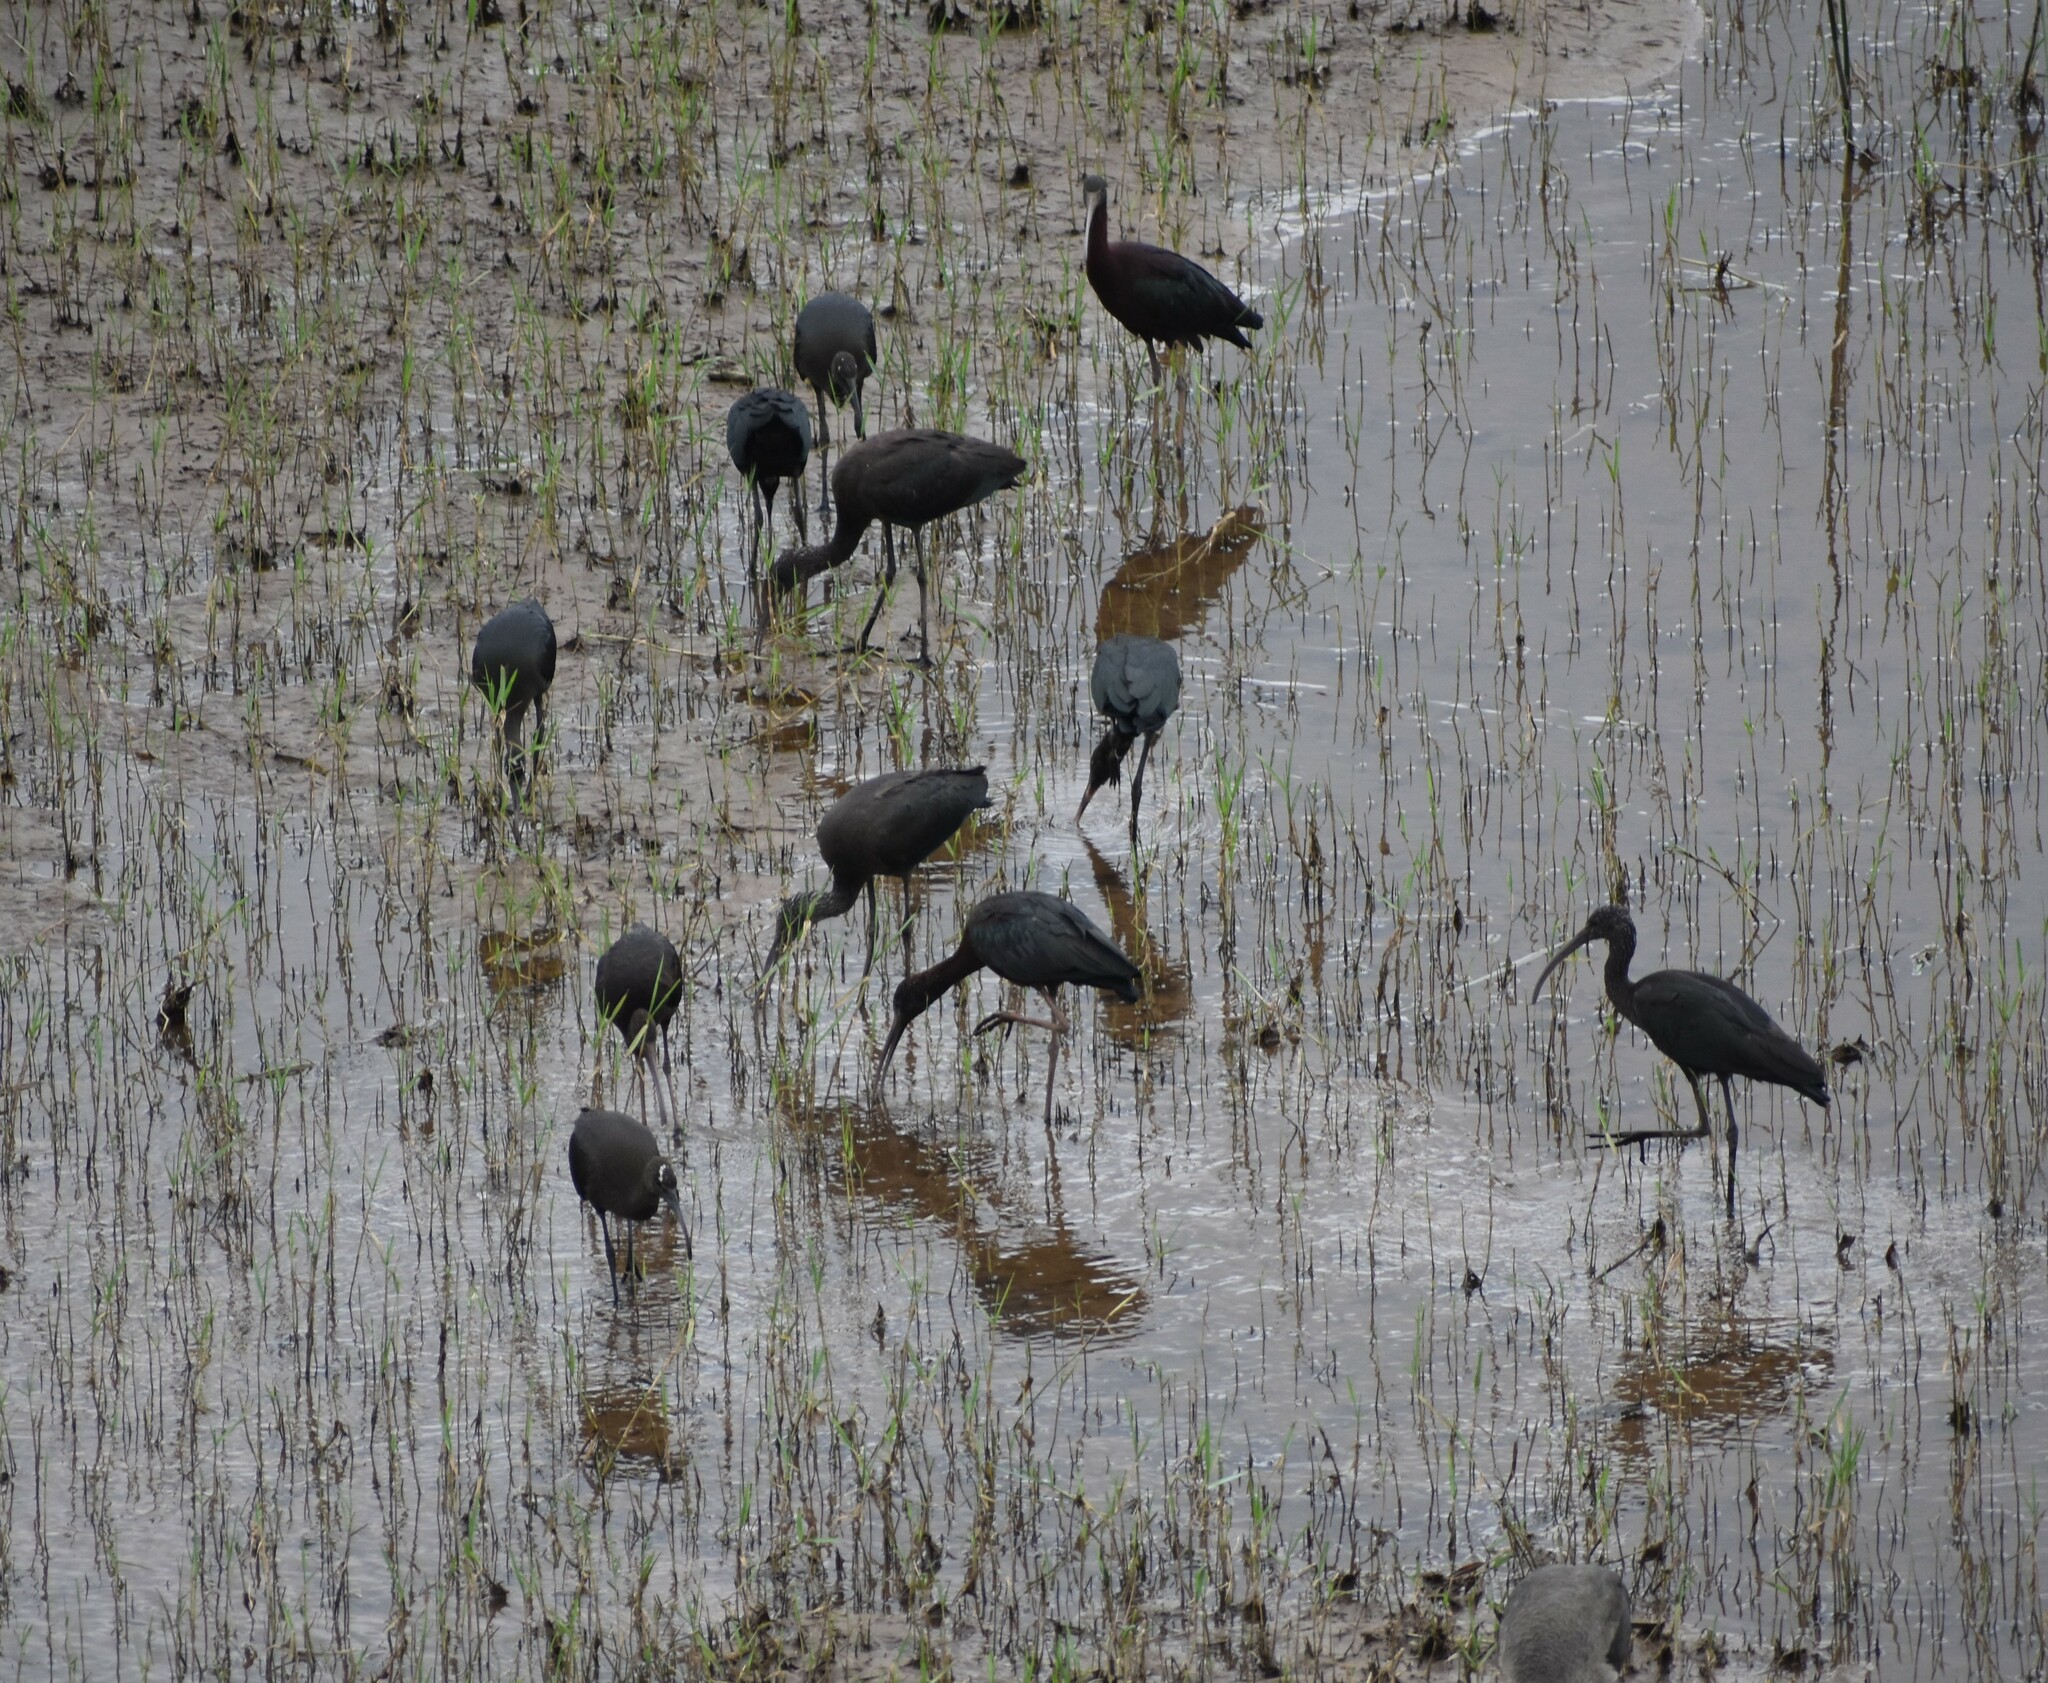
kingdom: Animalia
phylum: Chordata
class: Aves
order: Pelecaniformes
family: Threskiornithidae
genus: Plegadis
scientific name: Plegadis falcinellus
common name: Glossy ibis
